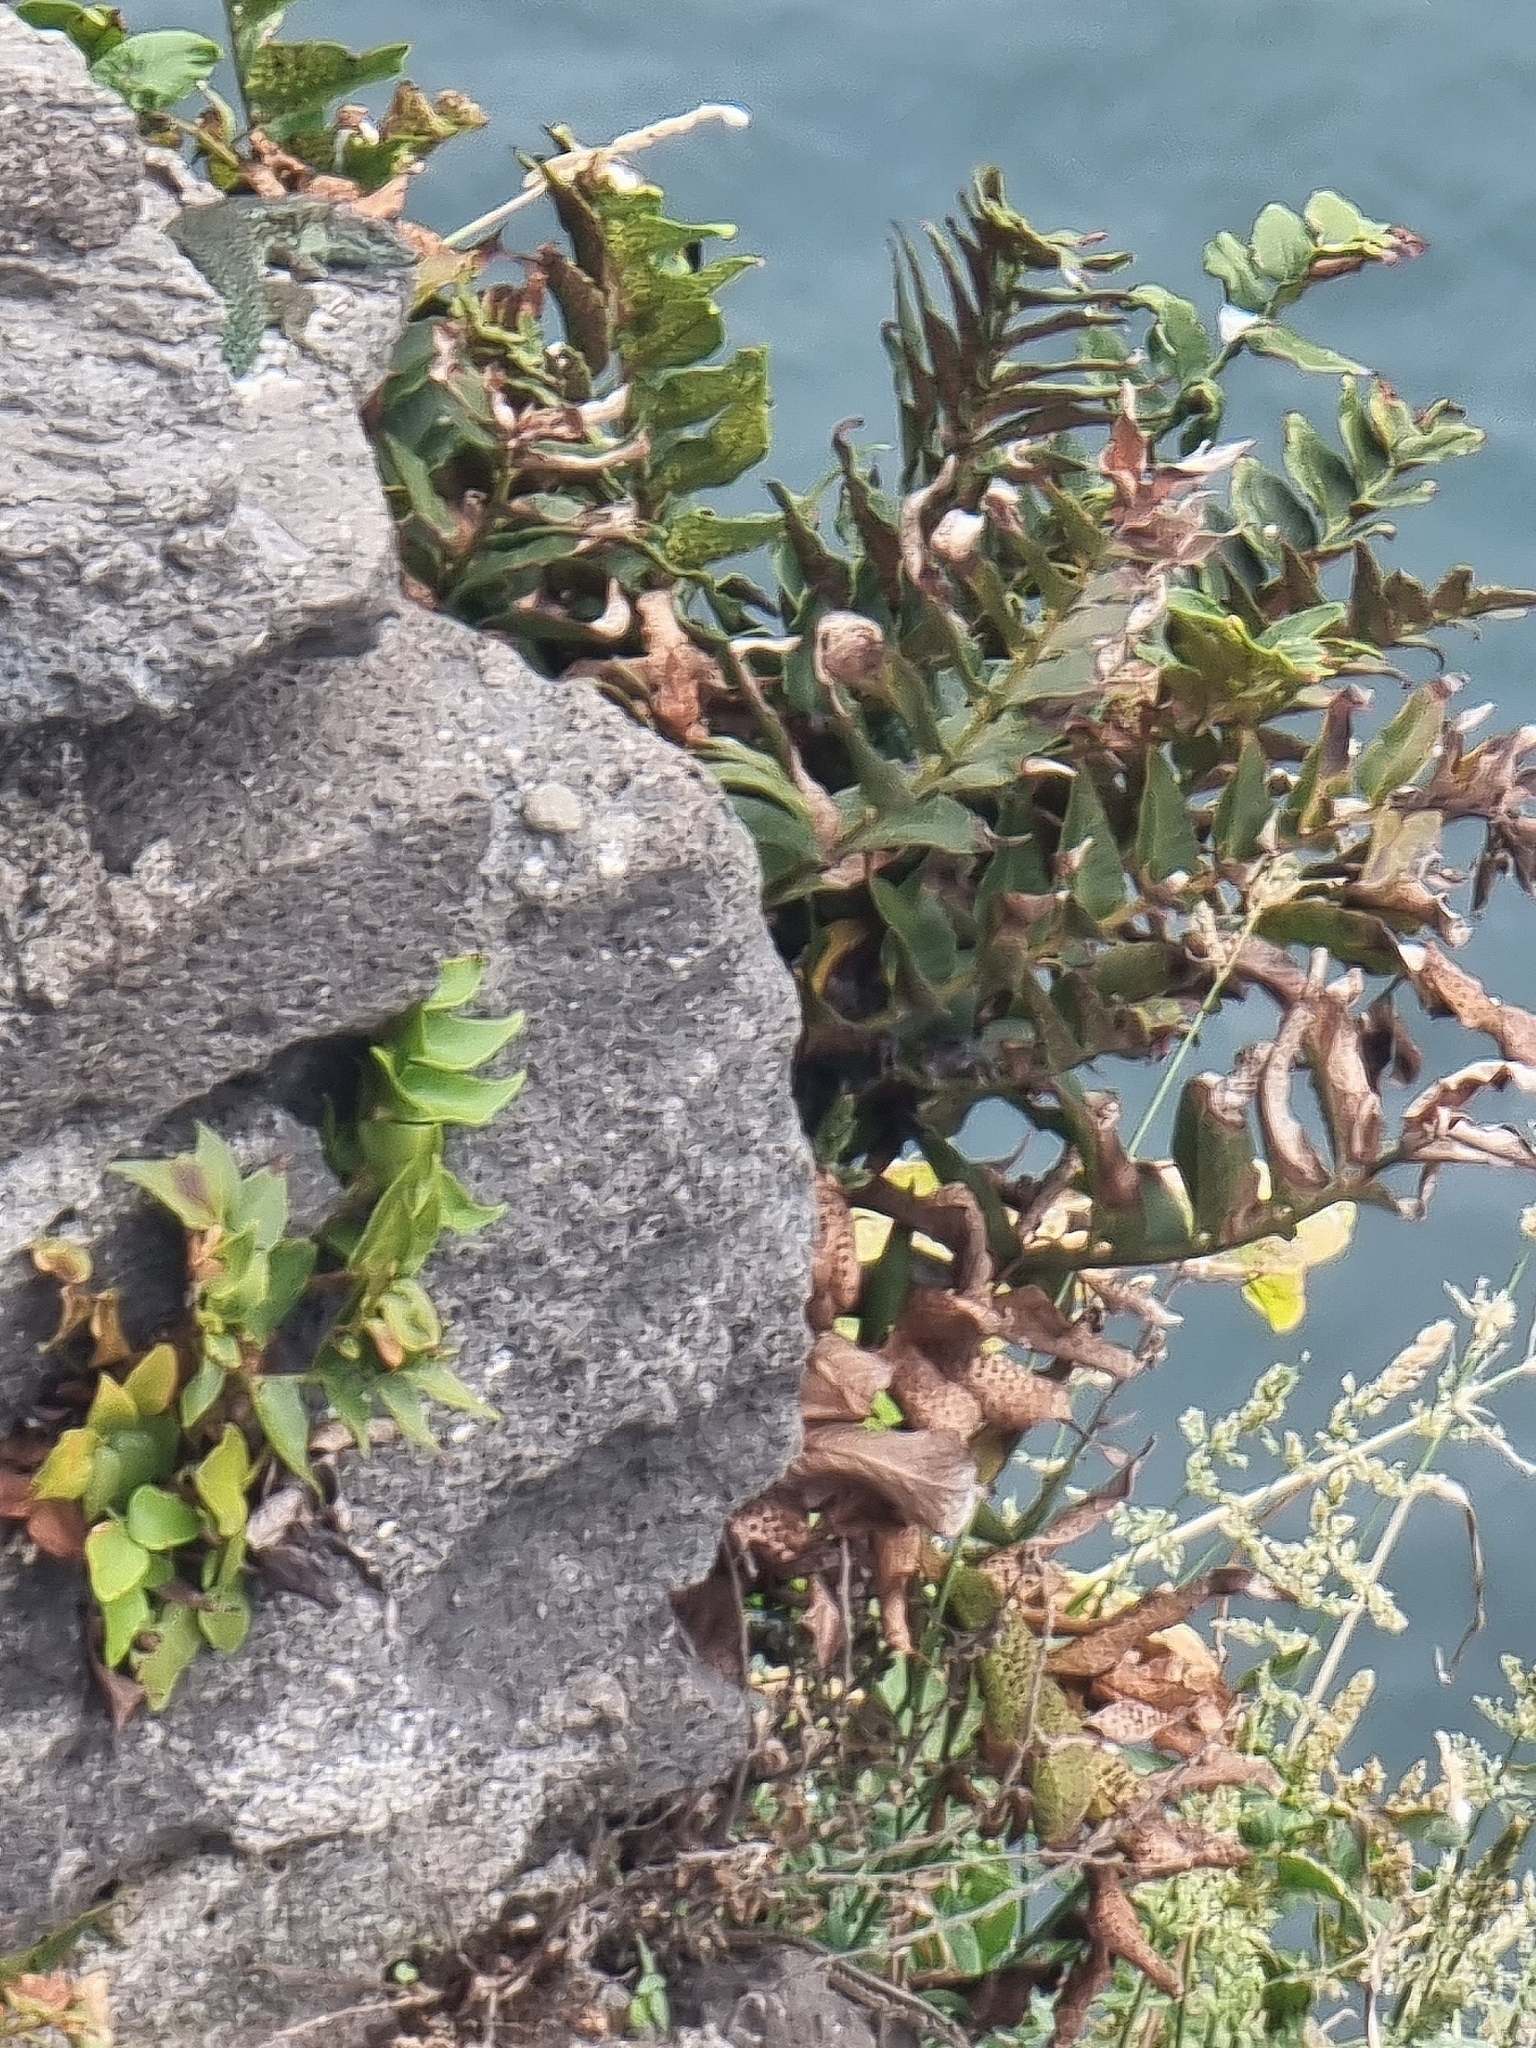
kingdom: Plantae
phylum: Tracheophyta
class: Polypodiopsida
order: Polypodiales
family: Dryopteridaceae
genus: Cyrtomium
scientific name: Cyrtomium falcatum
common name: House holly-fern
